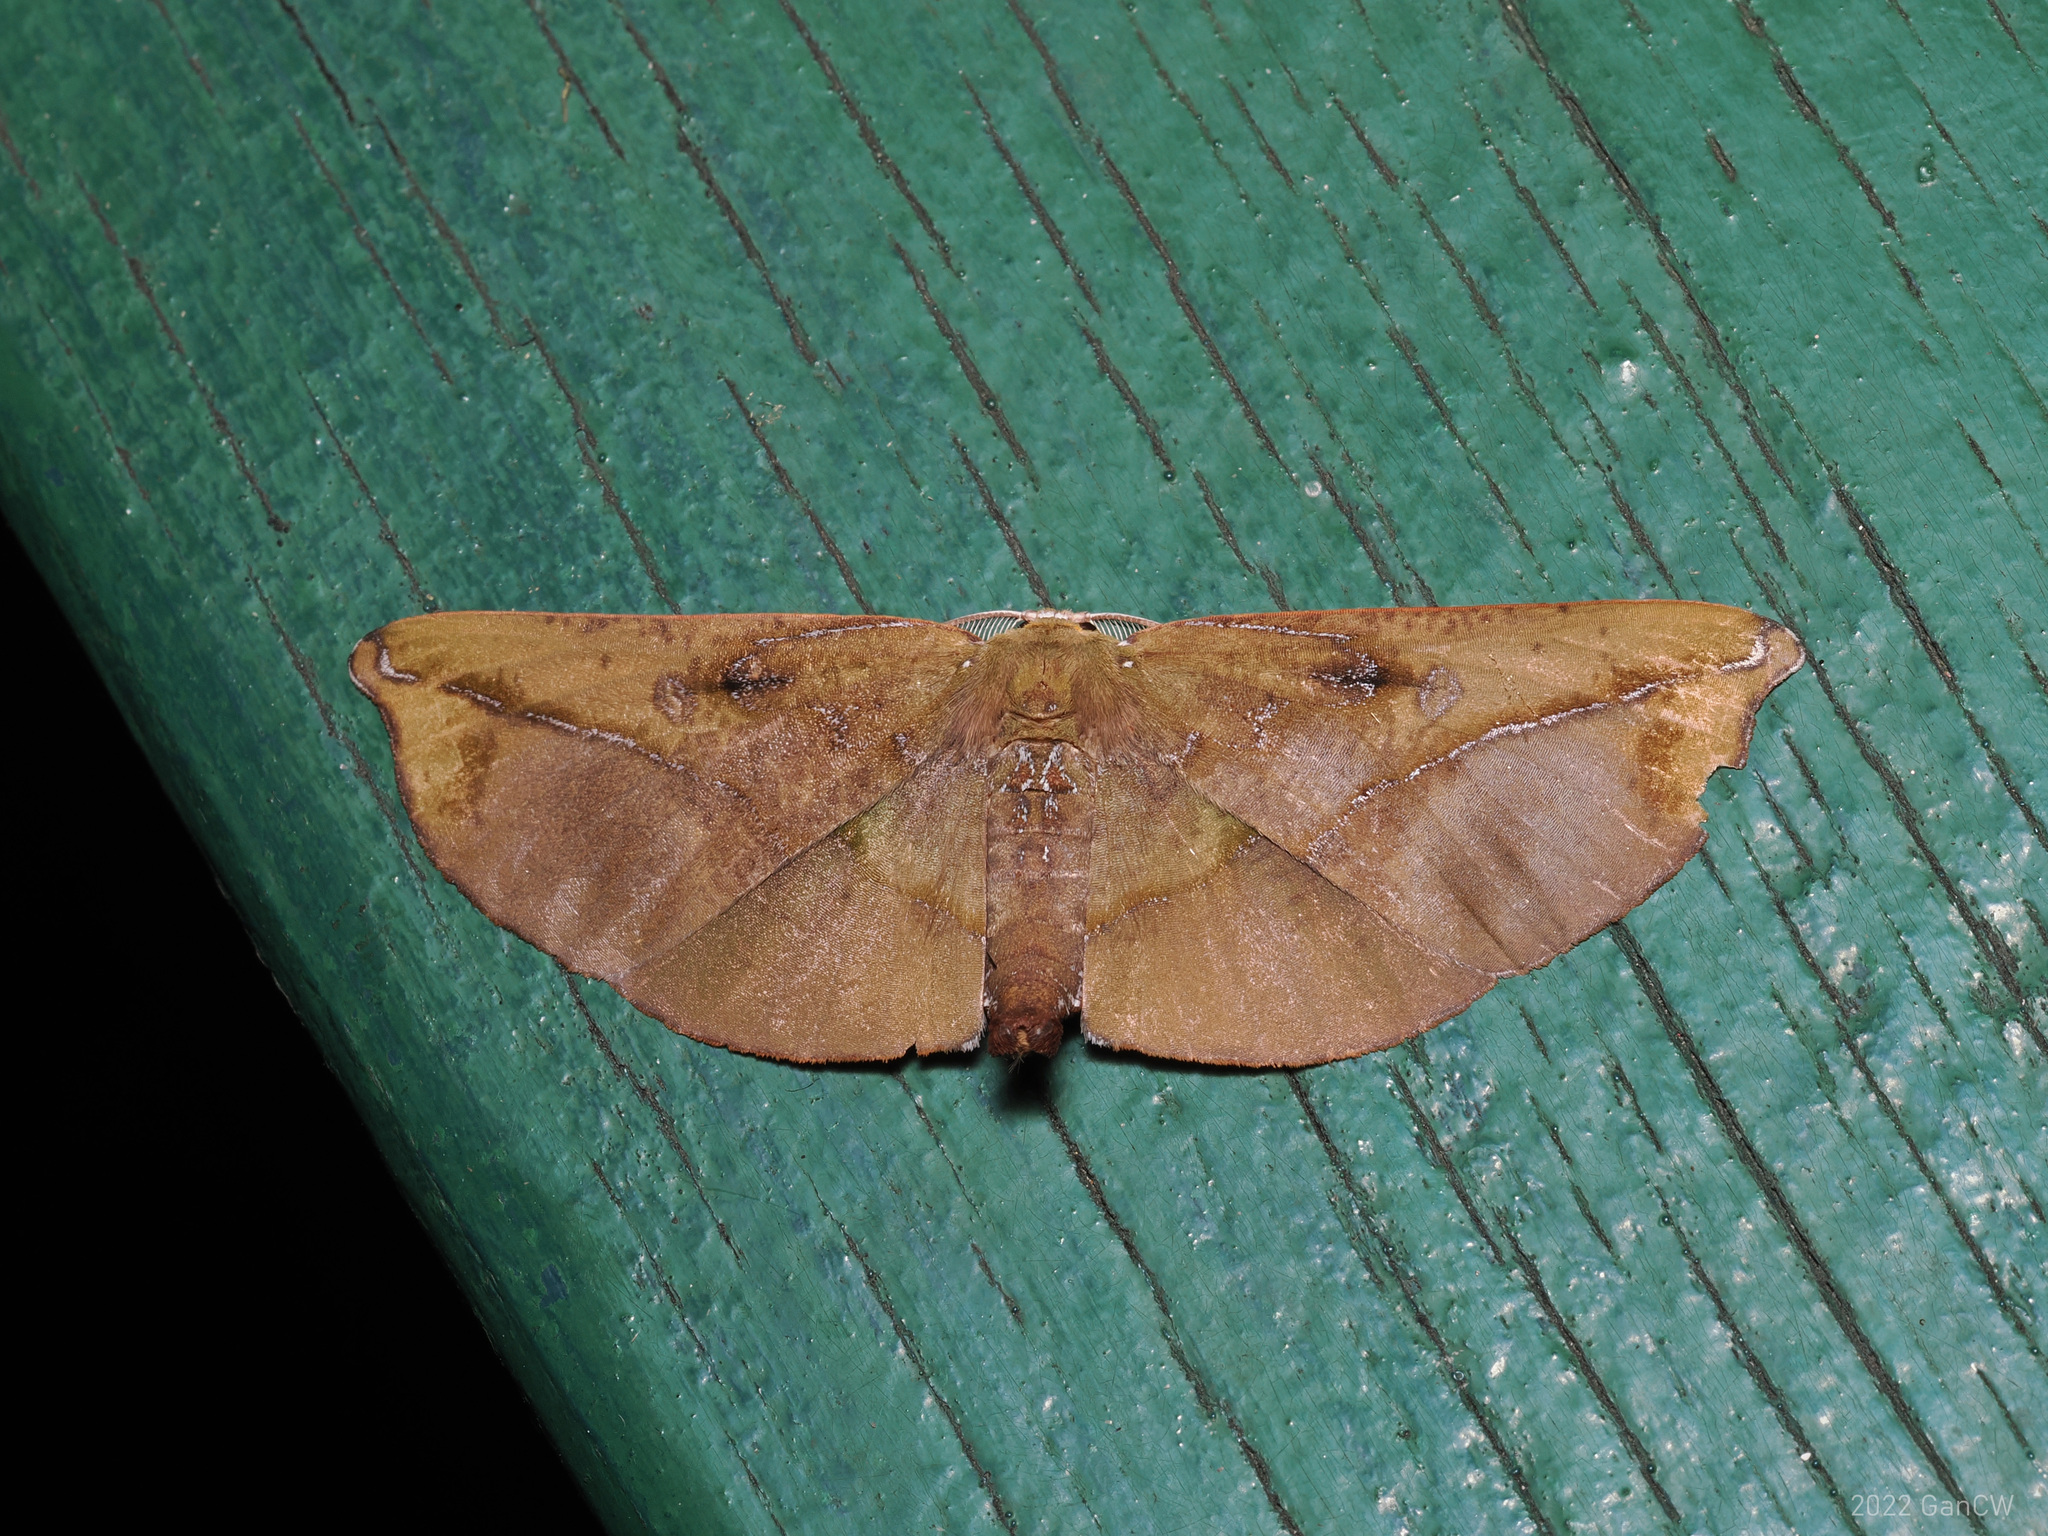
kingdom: Animalia
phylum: Arthropoda
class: Insecta
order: Lepidoptera
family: Geometridae
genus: Omiza
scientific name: Omiza lycoraria
